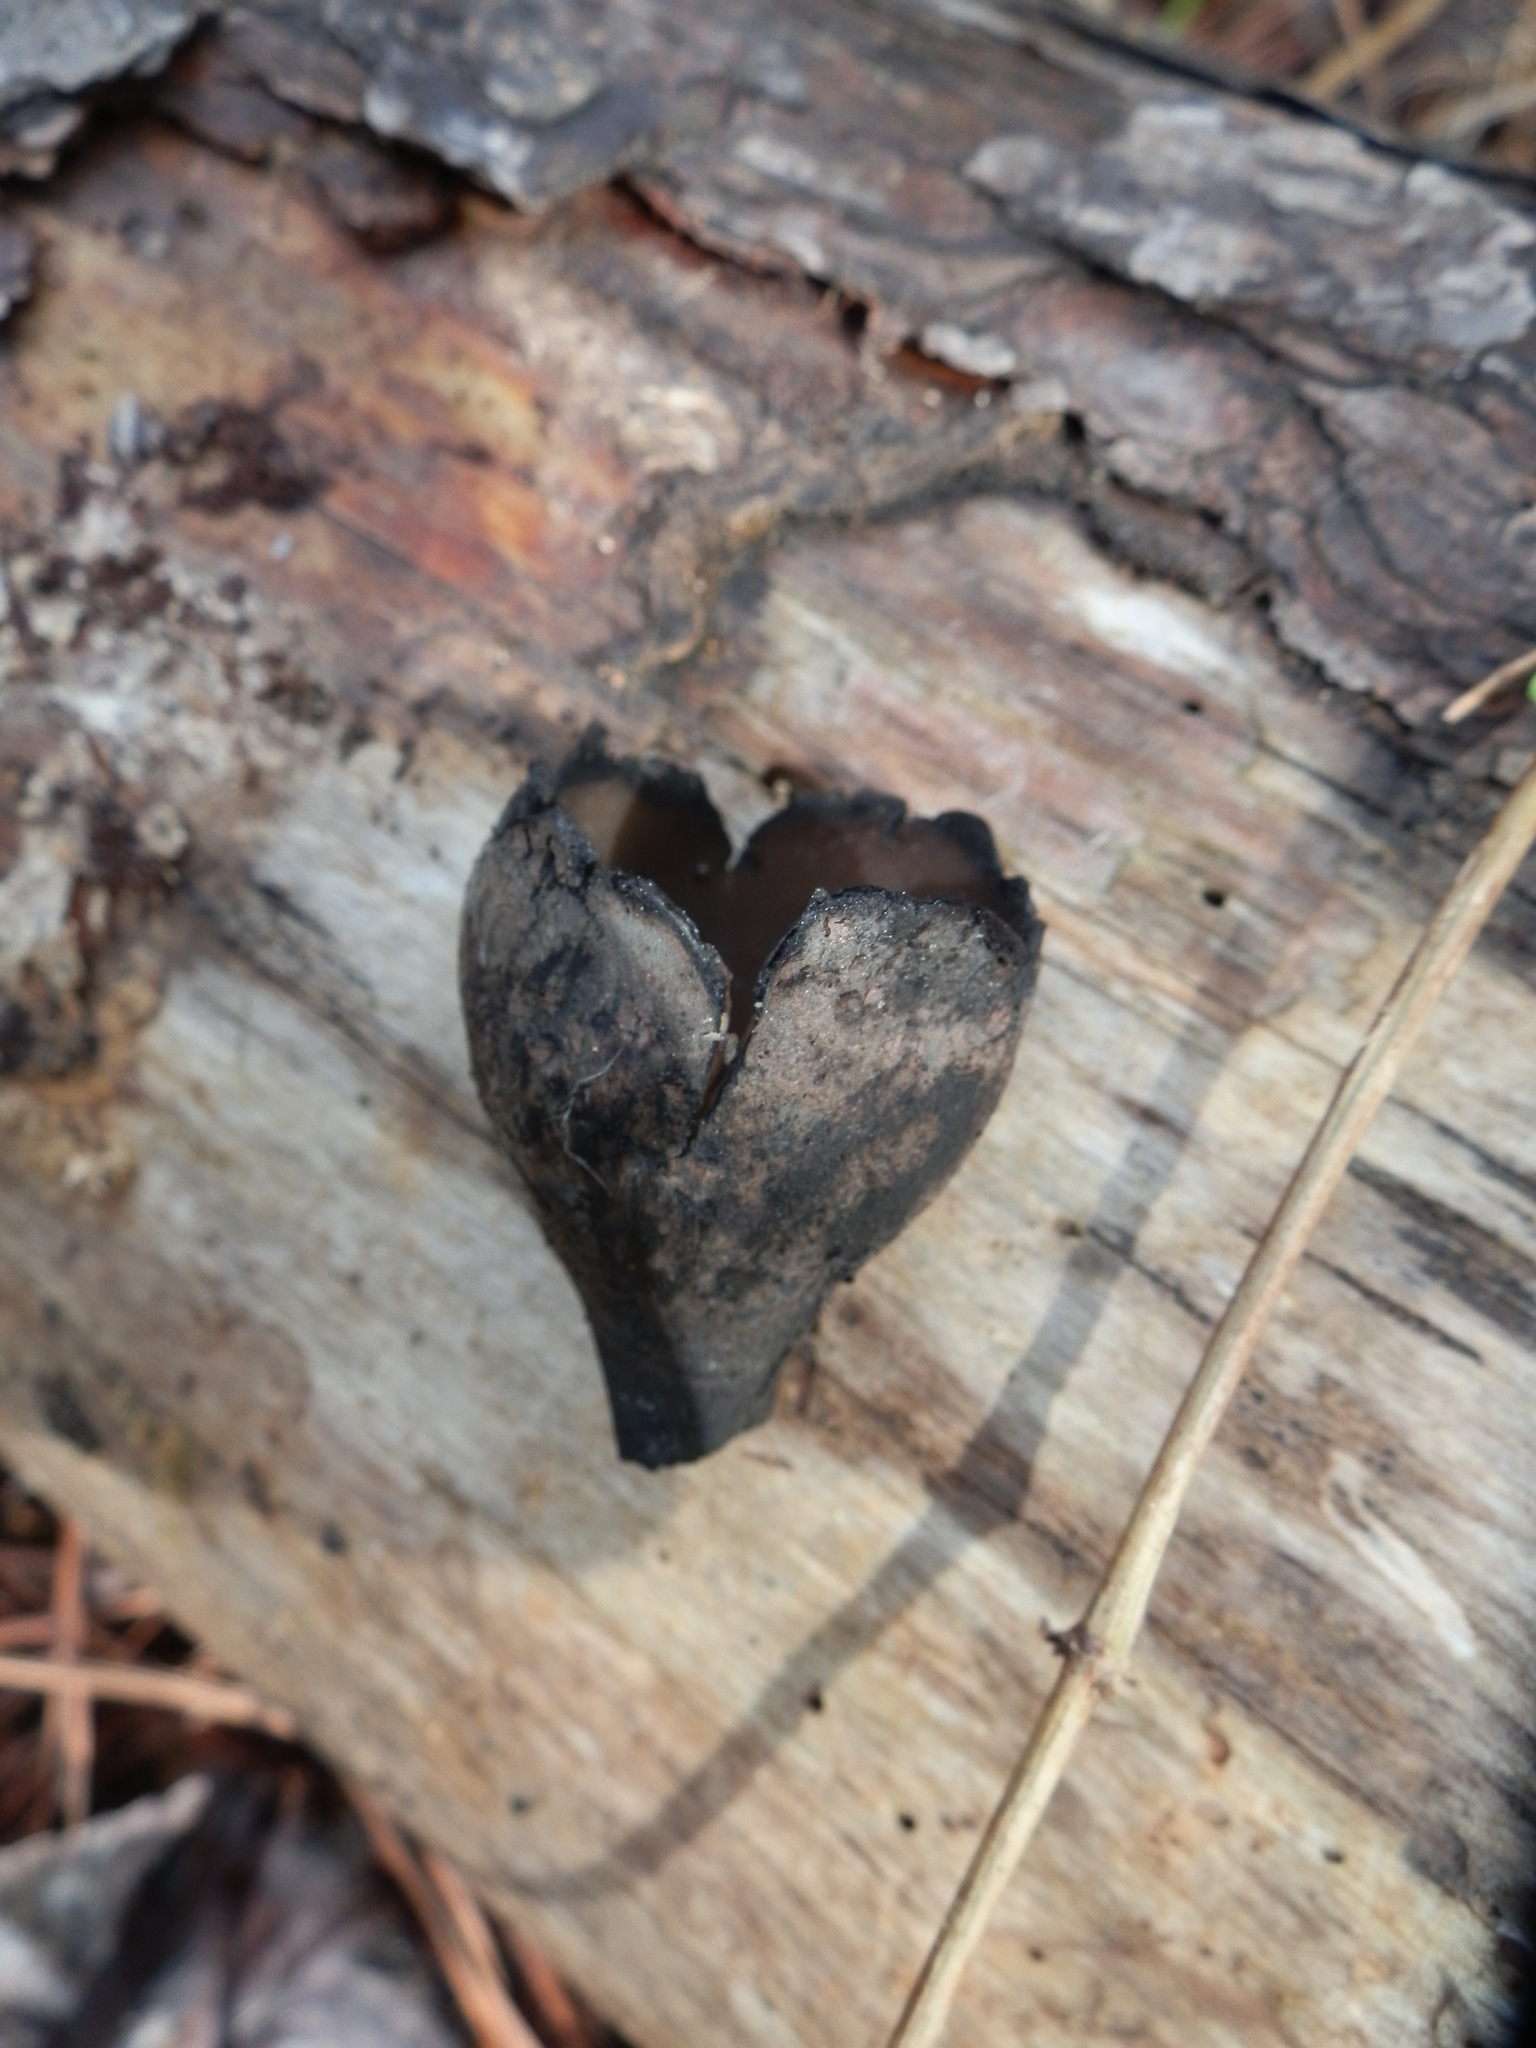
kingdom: Fungi
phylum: Ascomycota
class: Pezizomycetes
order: Pezizales
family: Sarcosomataceae
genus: Urnula
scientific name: Urnula craterium
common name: Devil's urn
